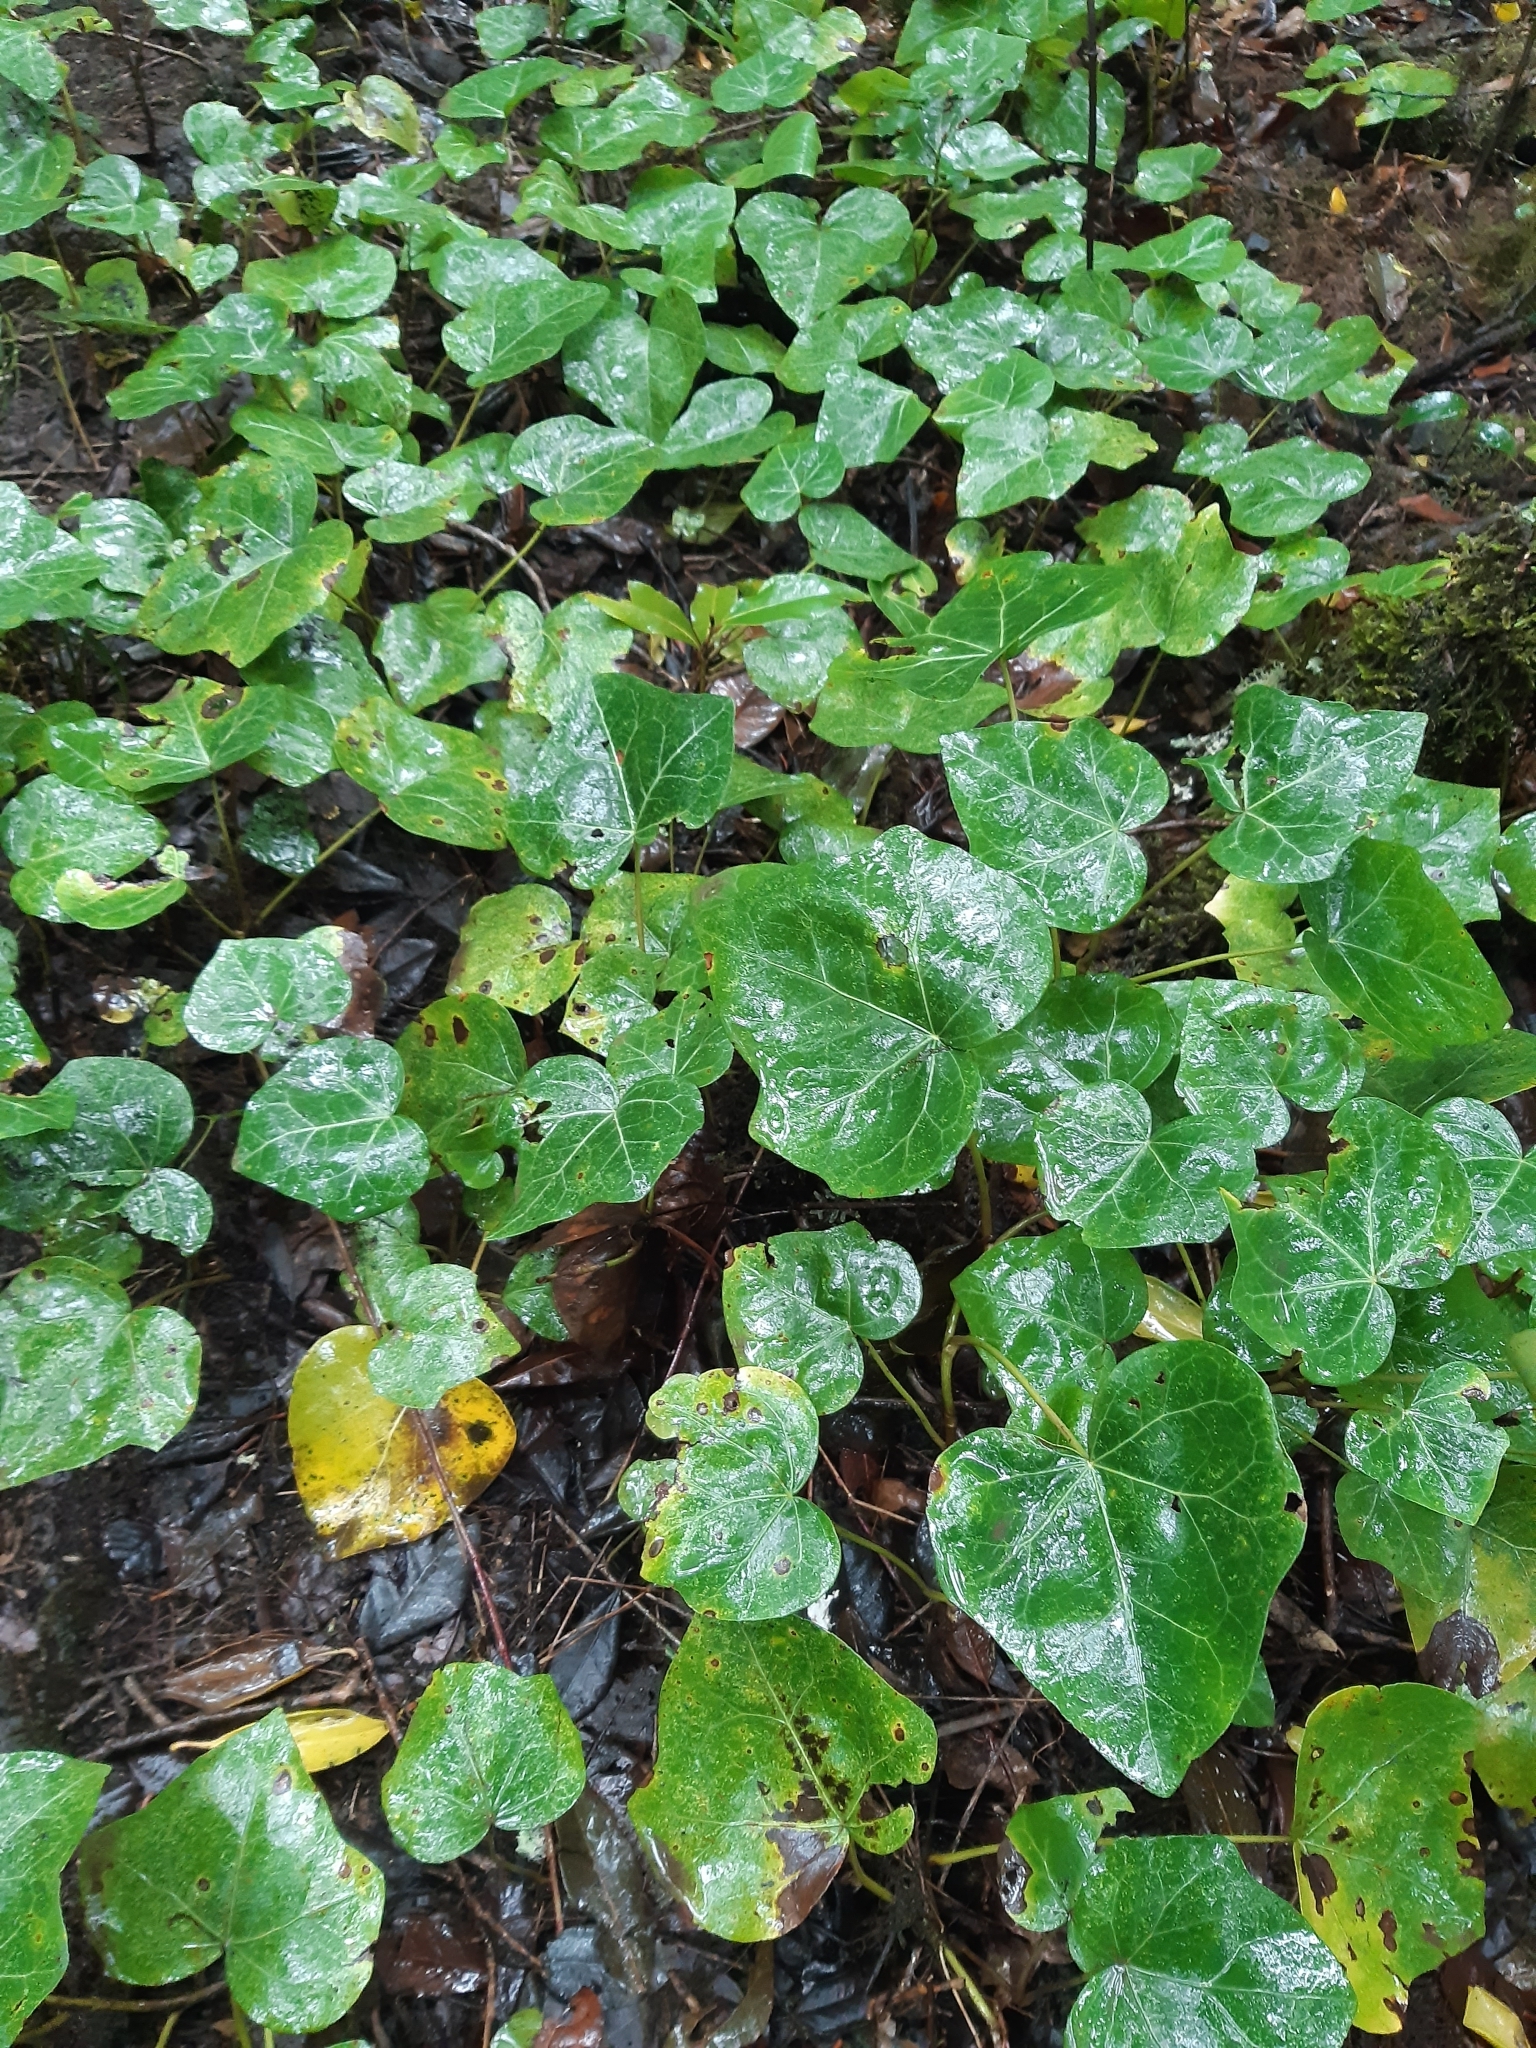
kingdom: Plantae
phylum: Tracheophyta
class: Magnoliopsida
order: Apiales
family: Araliaceae
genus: Hedera
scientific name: Hedera canariensis
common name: Madeira ivy
